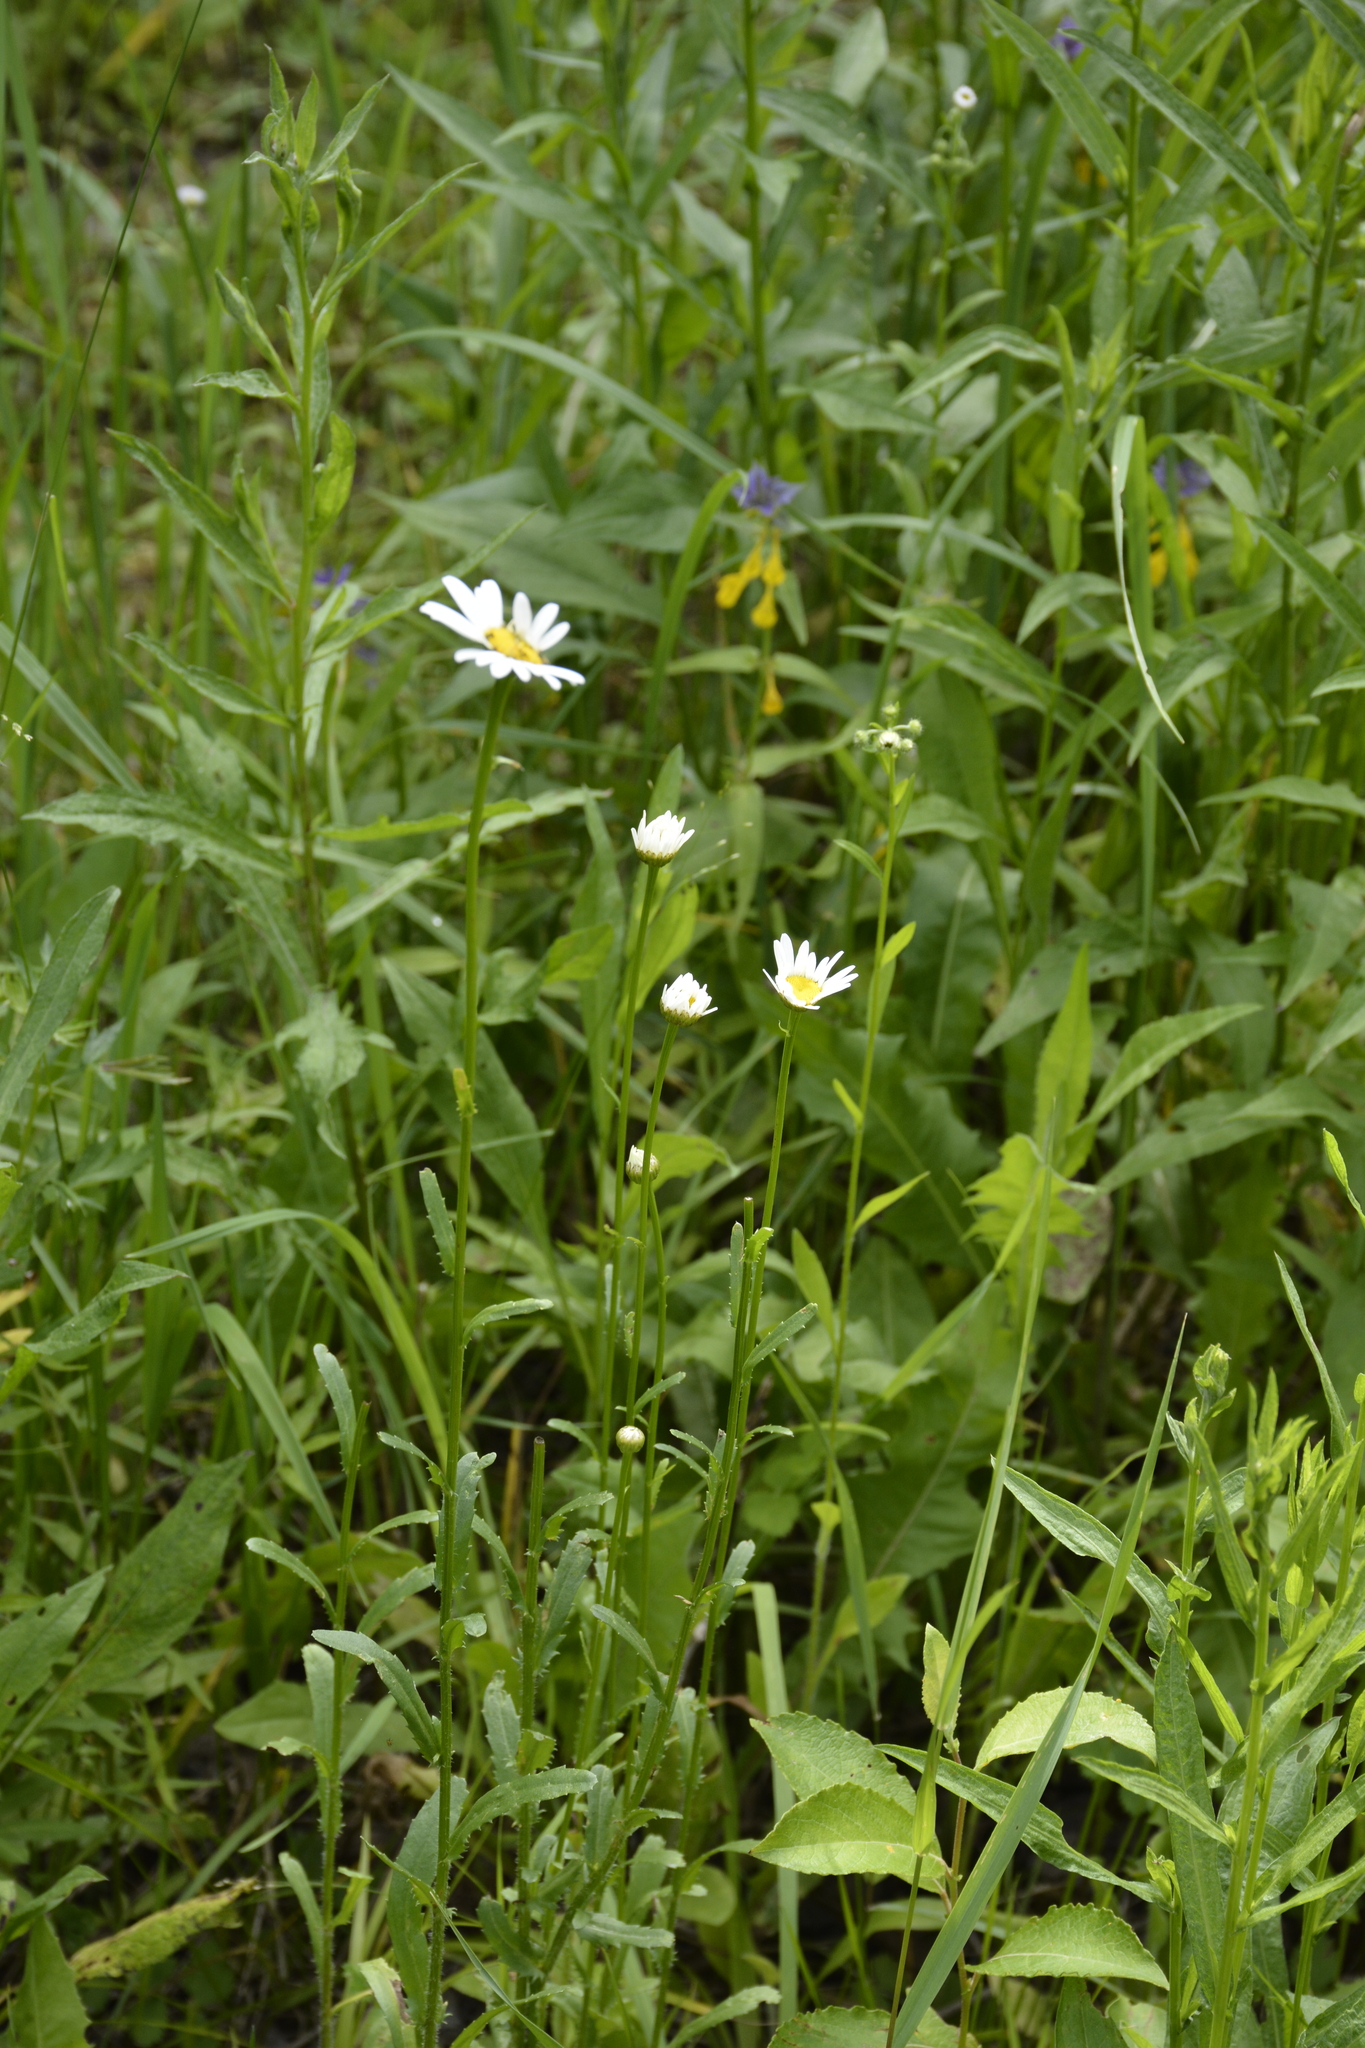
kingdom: Plantae
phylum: Tracheophyta
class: Magnoliopsida
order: Asterales
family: Asteraceae
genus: Leucanthemum
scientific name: Leucanthemum vulgare
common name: Oxeye daisy
